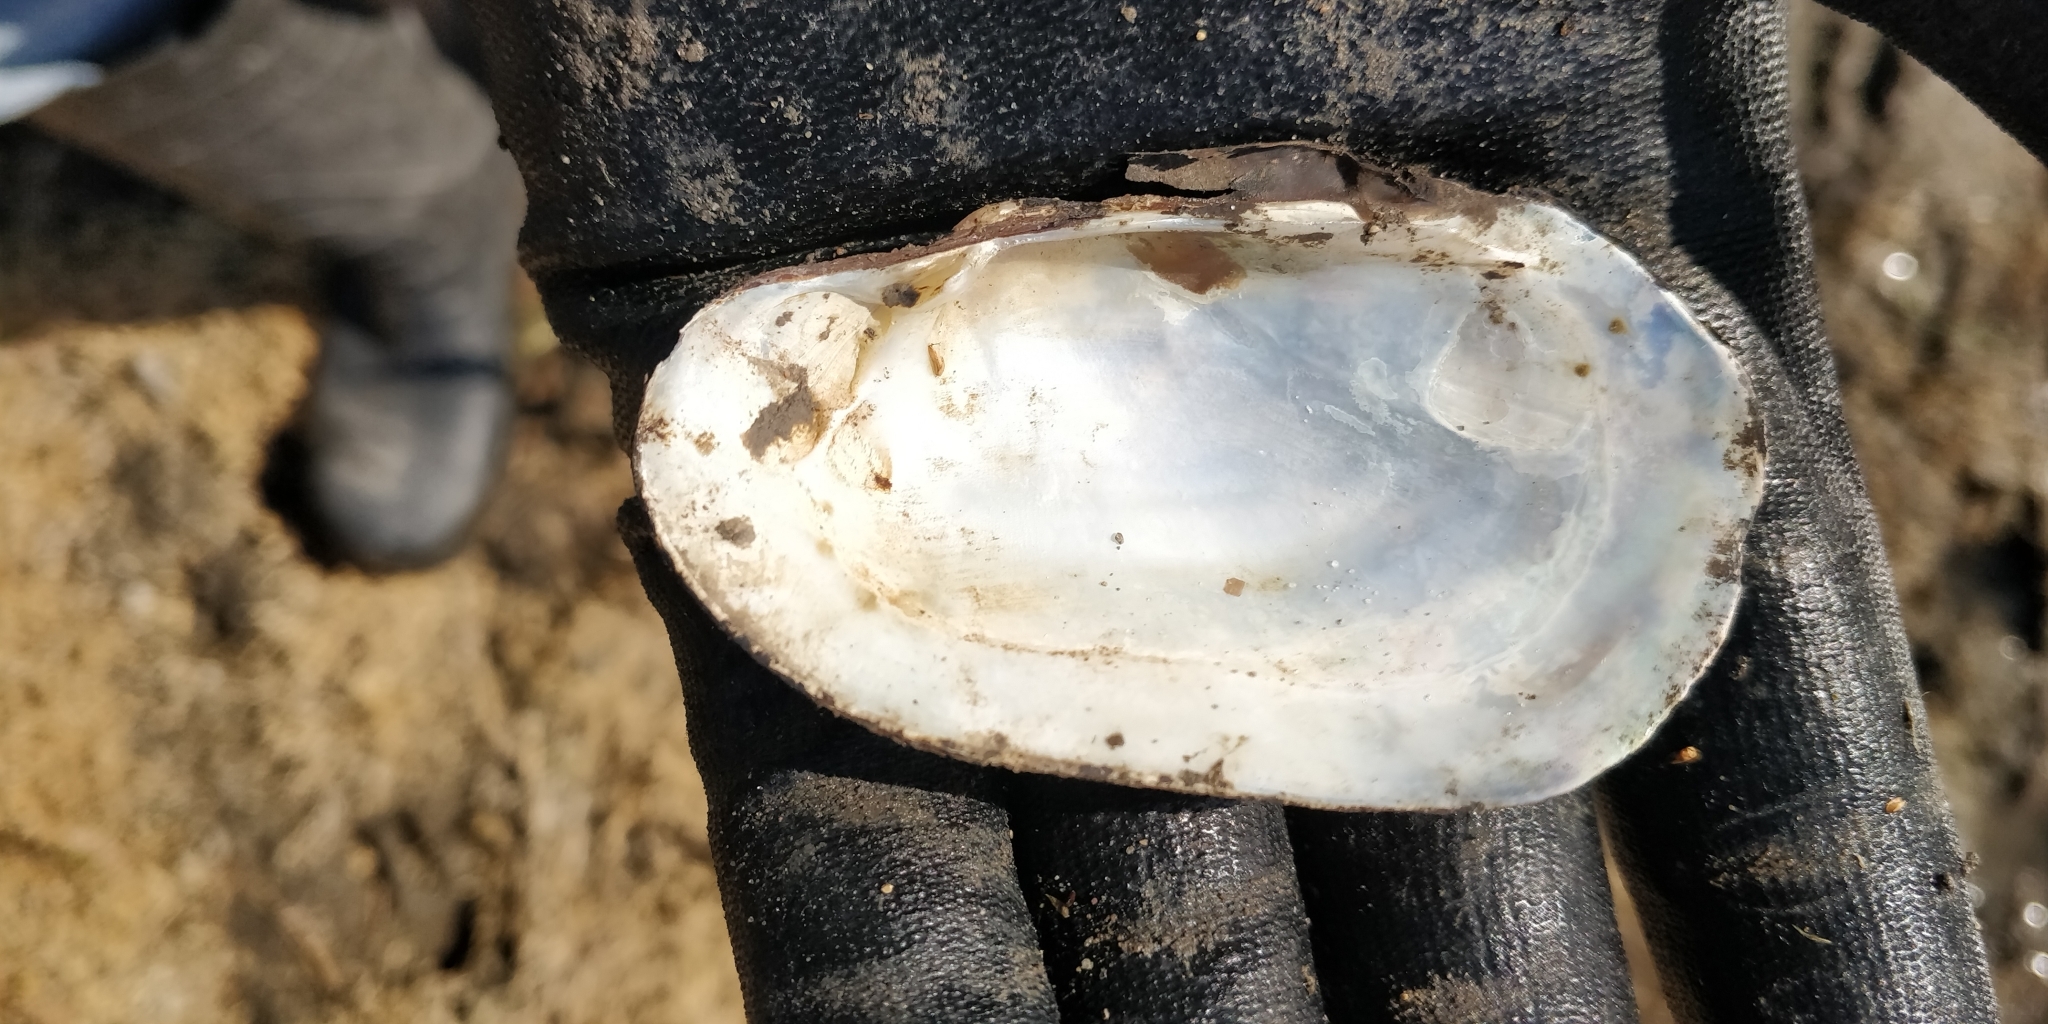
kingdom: Animalia
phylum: Mollusca
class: Bivalvia
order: Unionida
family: Unionidae
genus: Lampsilis
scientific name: Lampsilis siliquoidea
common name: Fatmucket
